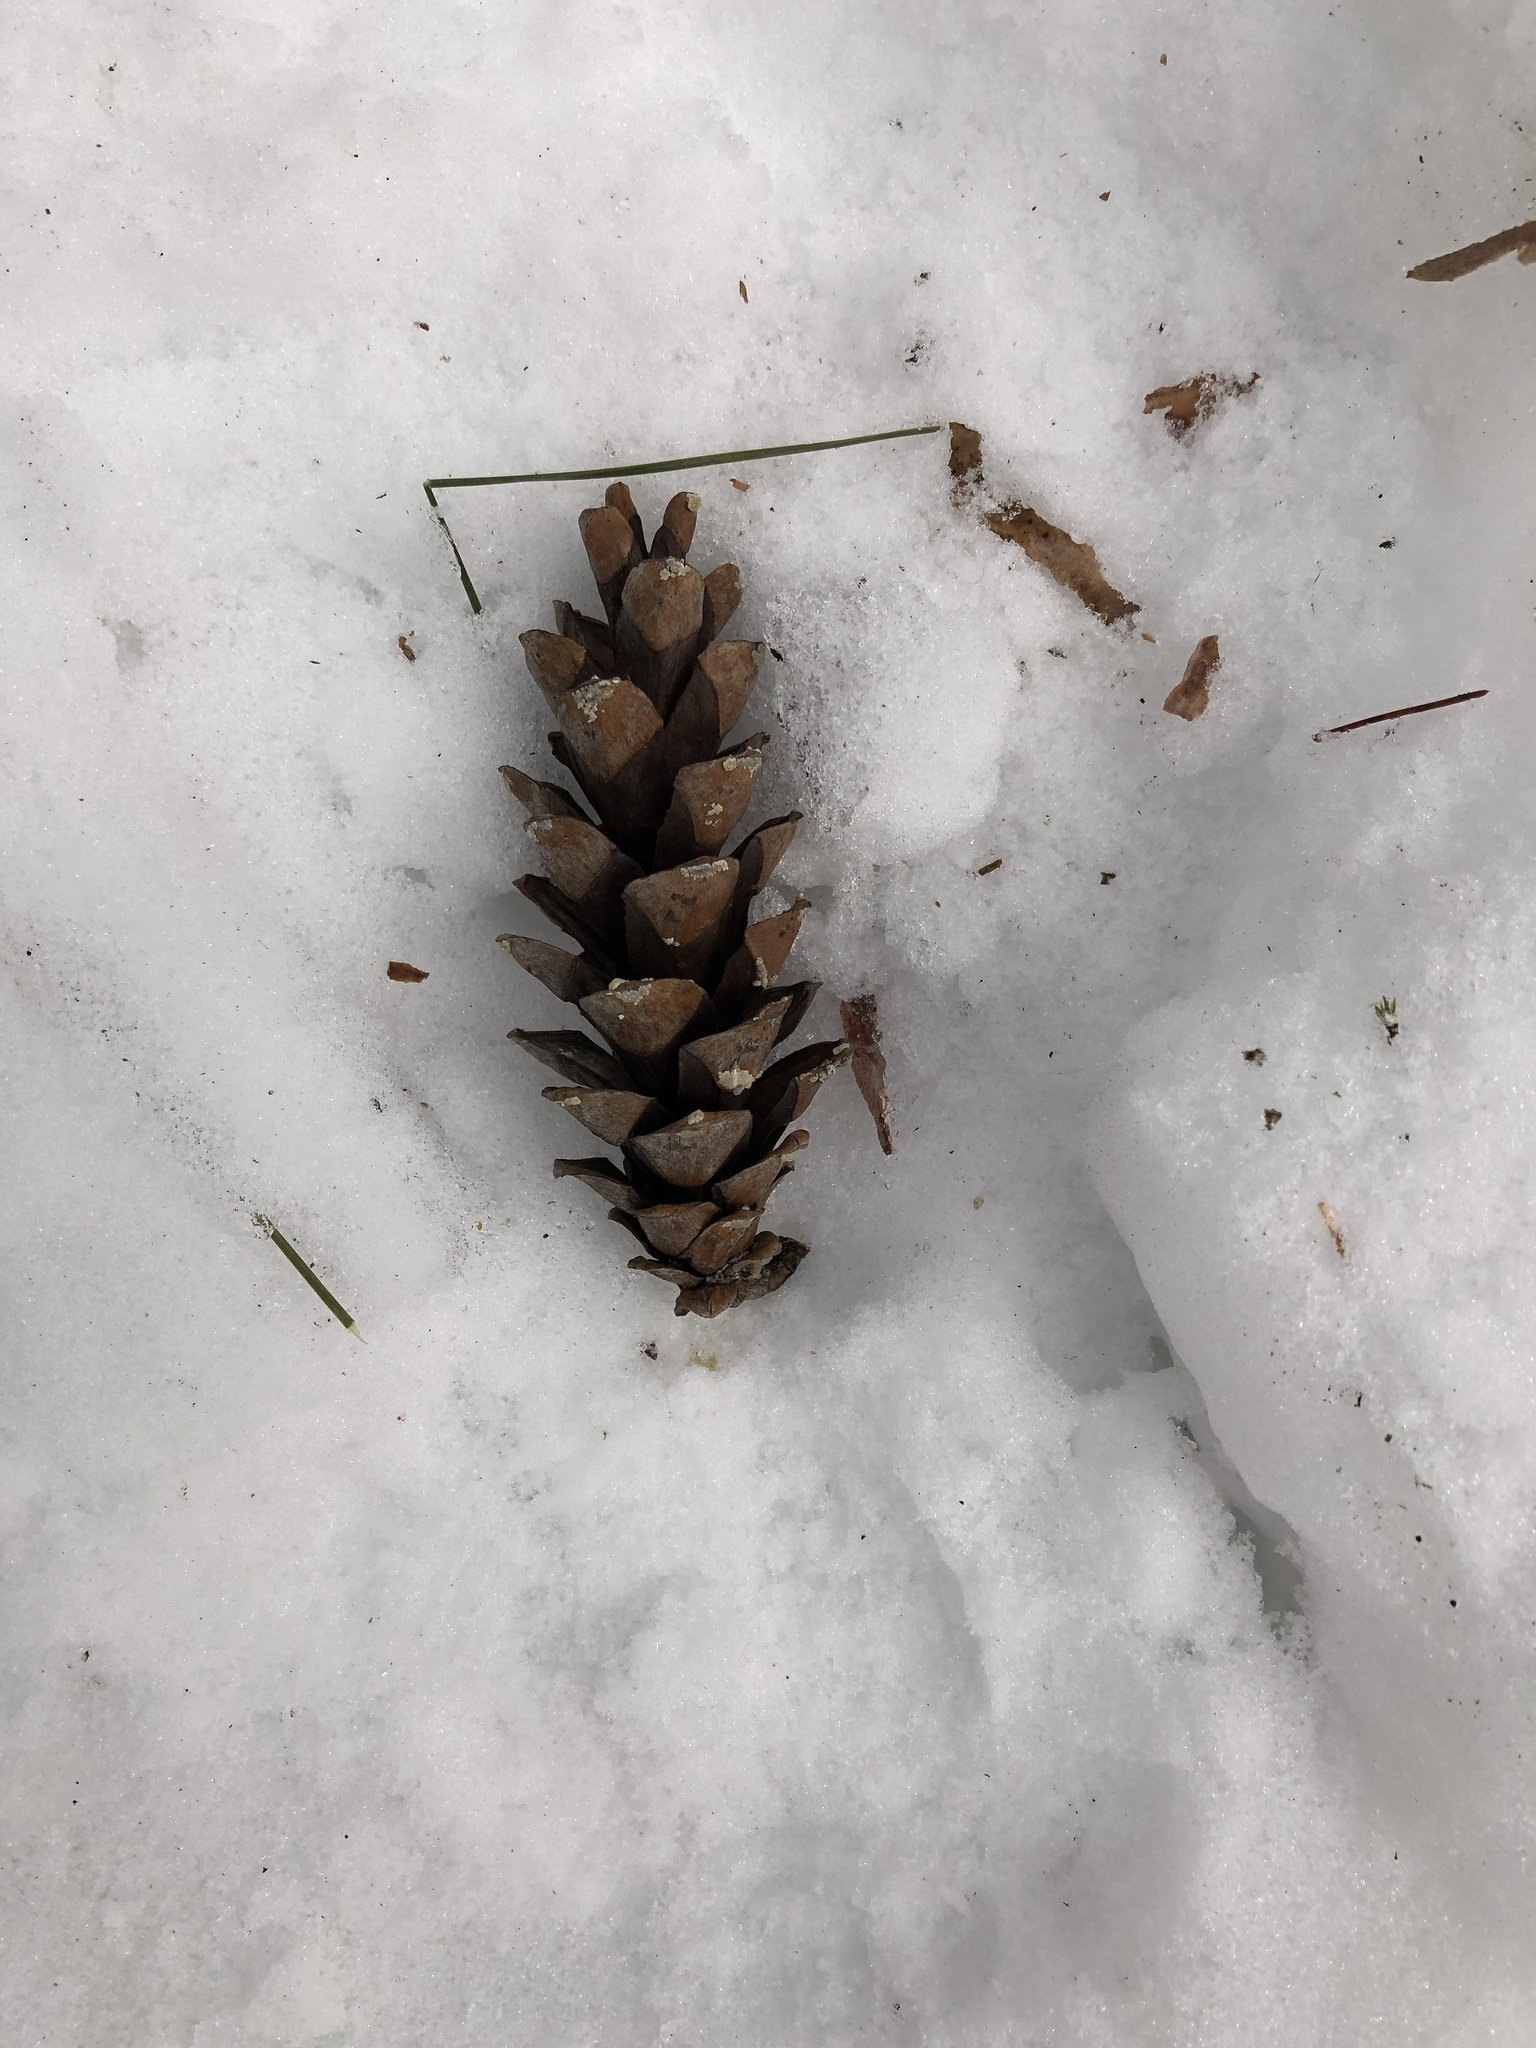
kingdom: Plantae
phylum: Tracheophyta
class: Pinopsida
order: Pinales
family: Pinaceae
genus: Pinus
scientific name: Pinus strobus
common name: Weymouth pine
